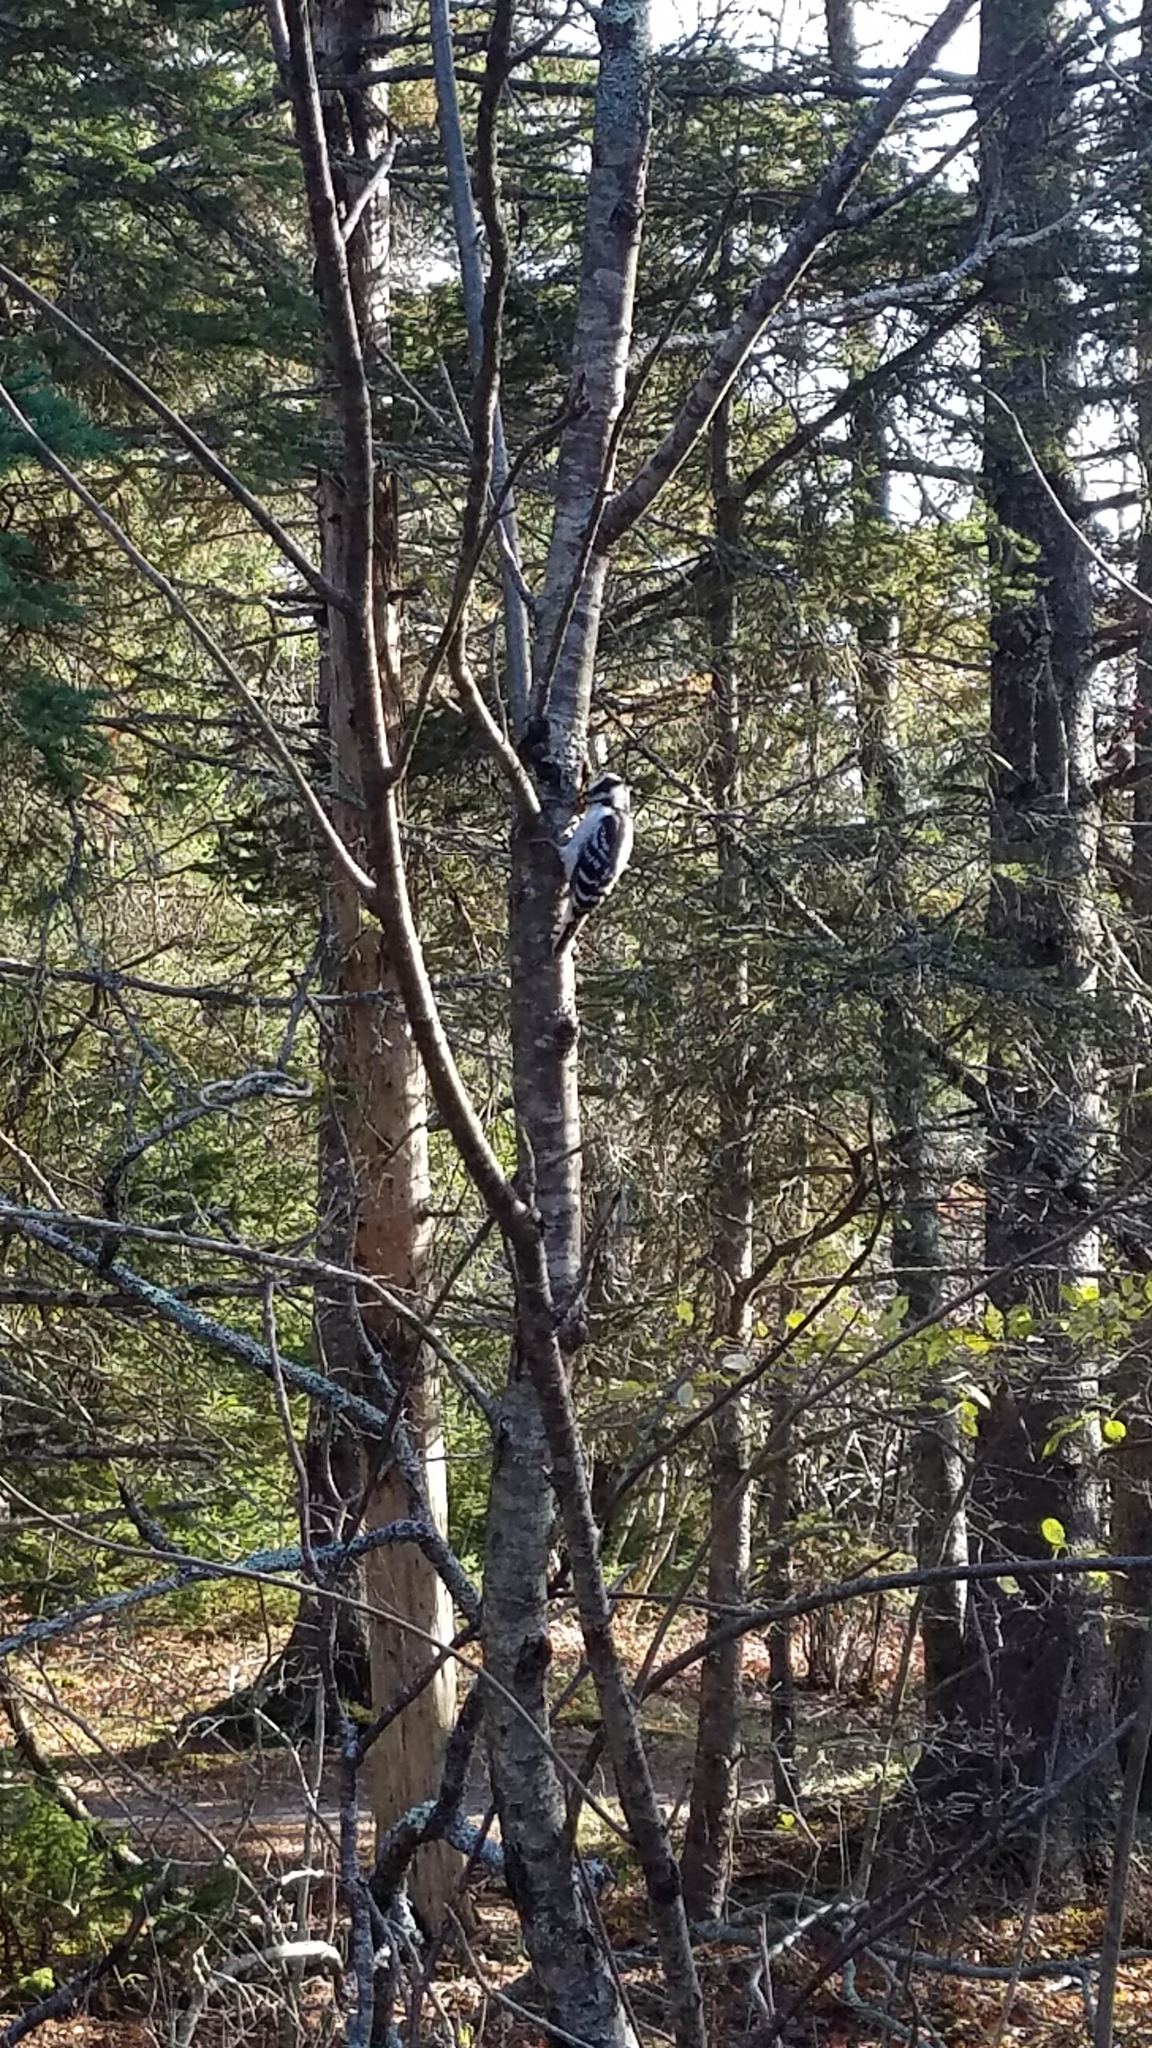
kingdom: Animalia
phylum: Chordata
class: Aves
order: Piciformes
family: Picidae
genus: Leuconotopicus
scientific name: Leuconotopicus villosus
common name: Hairy woodpecker
